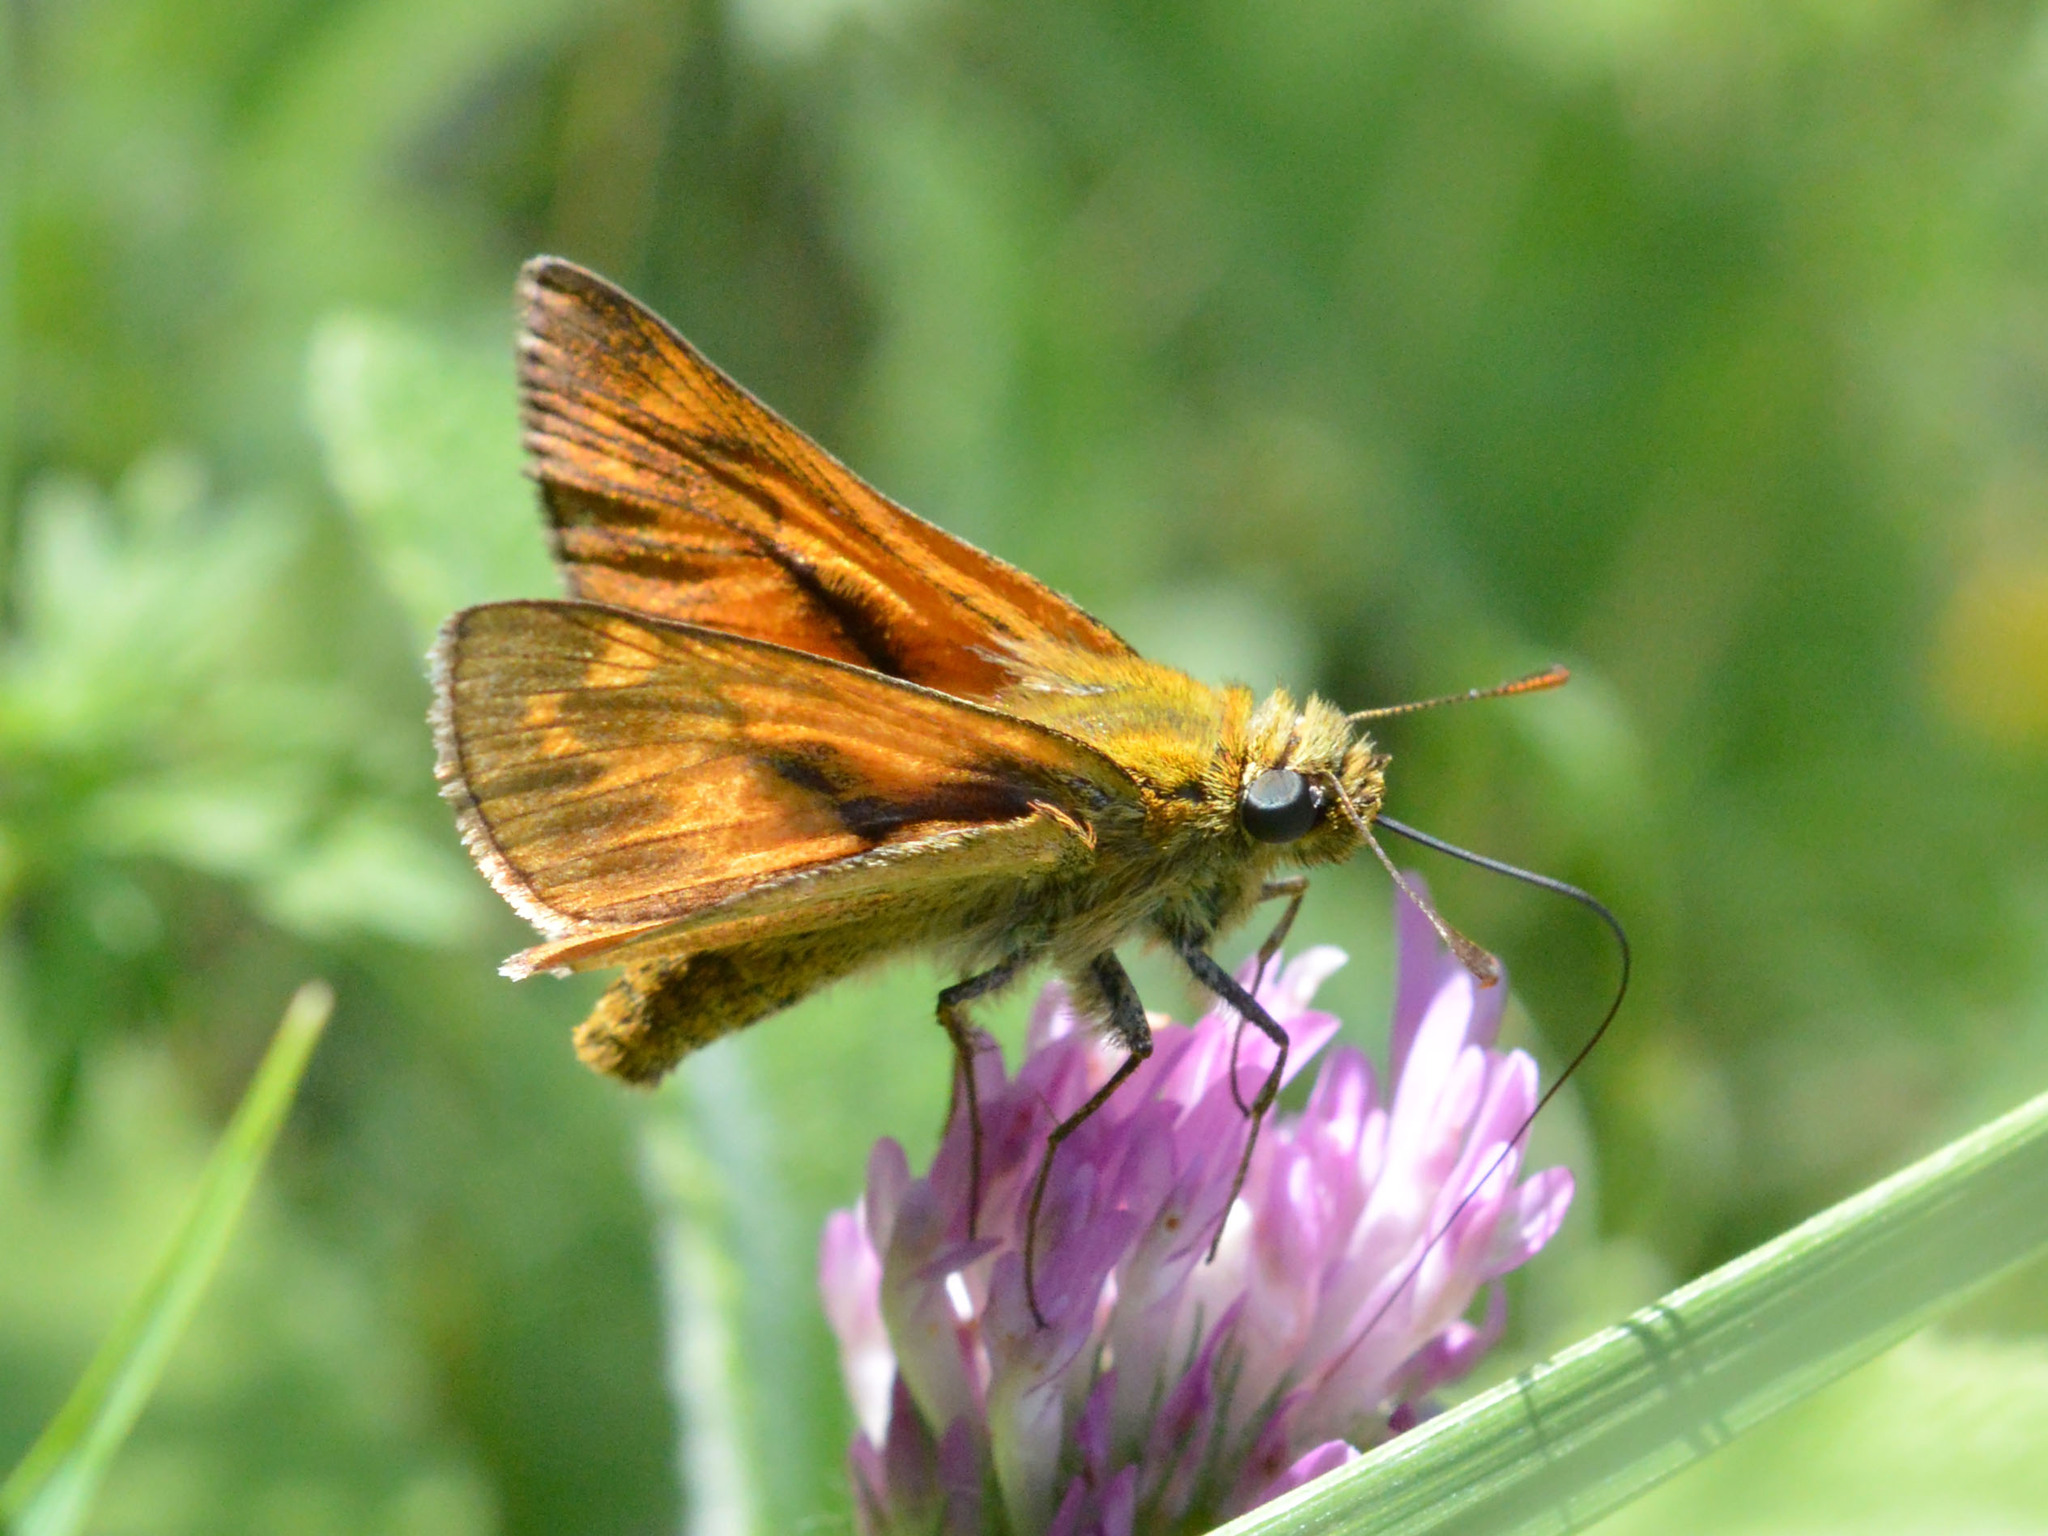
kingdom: Animalia
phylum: Arthropoda
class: Insecta
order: Lepidoptera
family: Hesperiidae
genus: Ochlodes
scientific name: Ochlodes venata
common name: Large skipper
